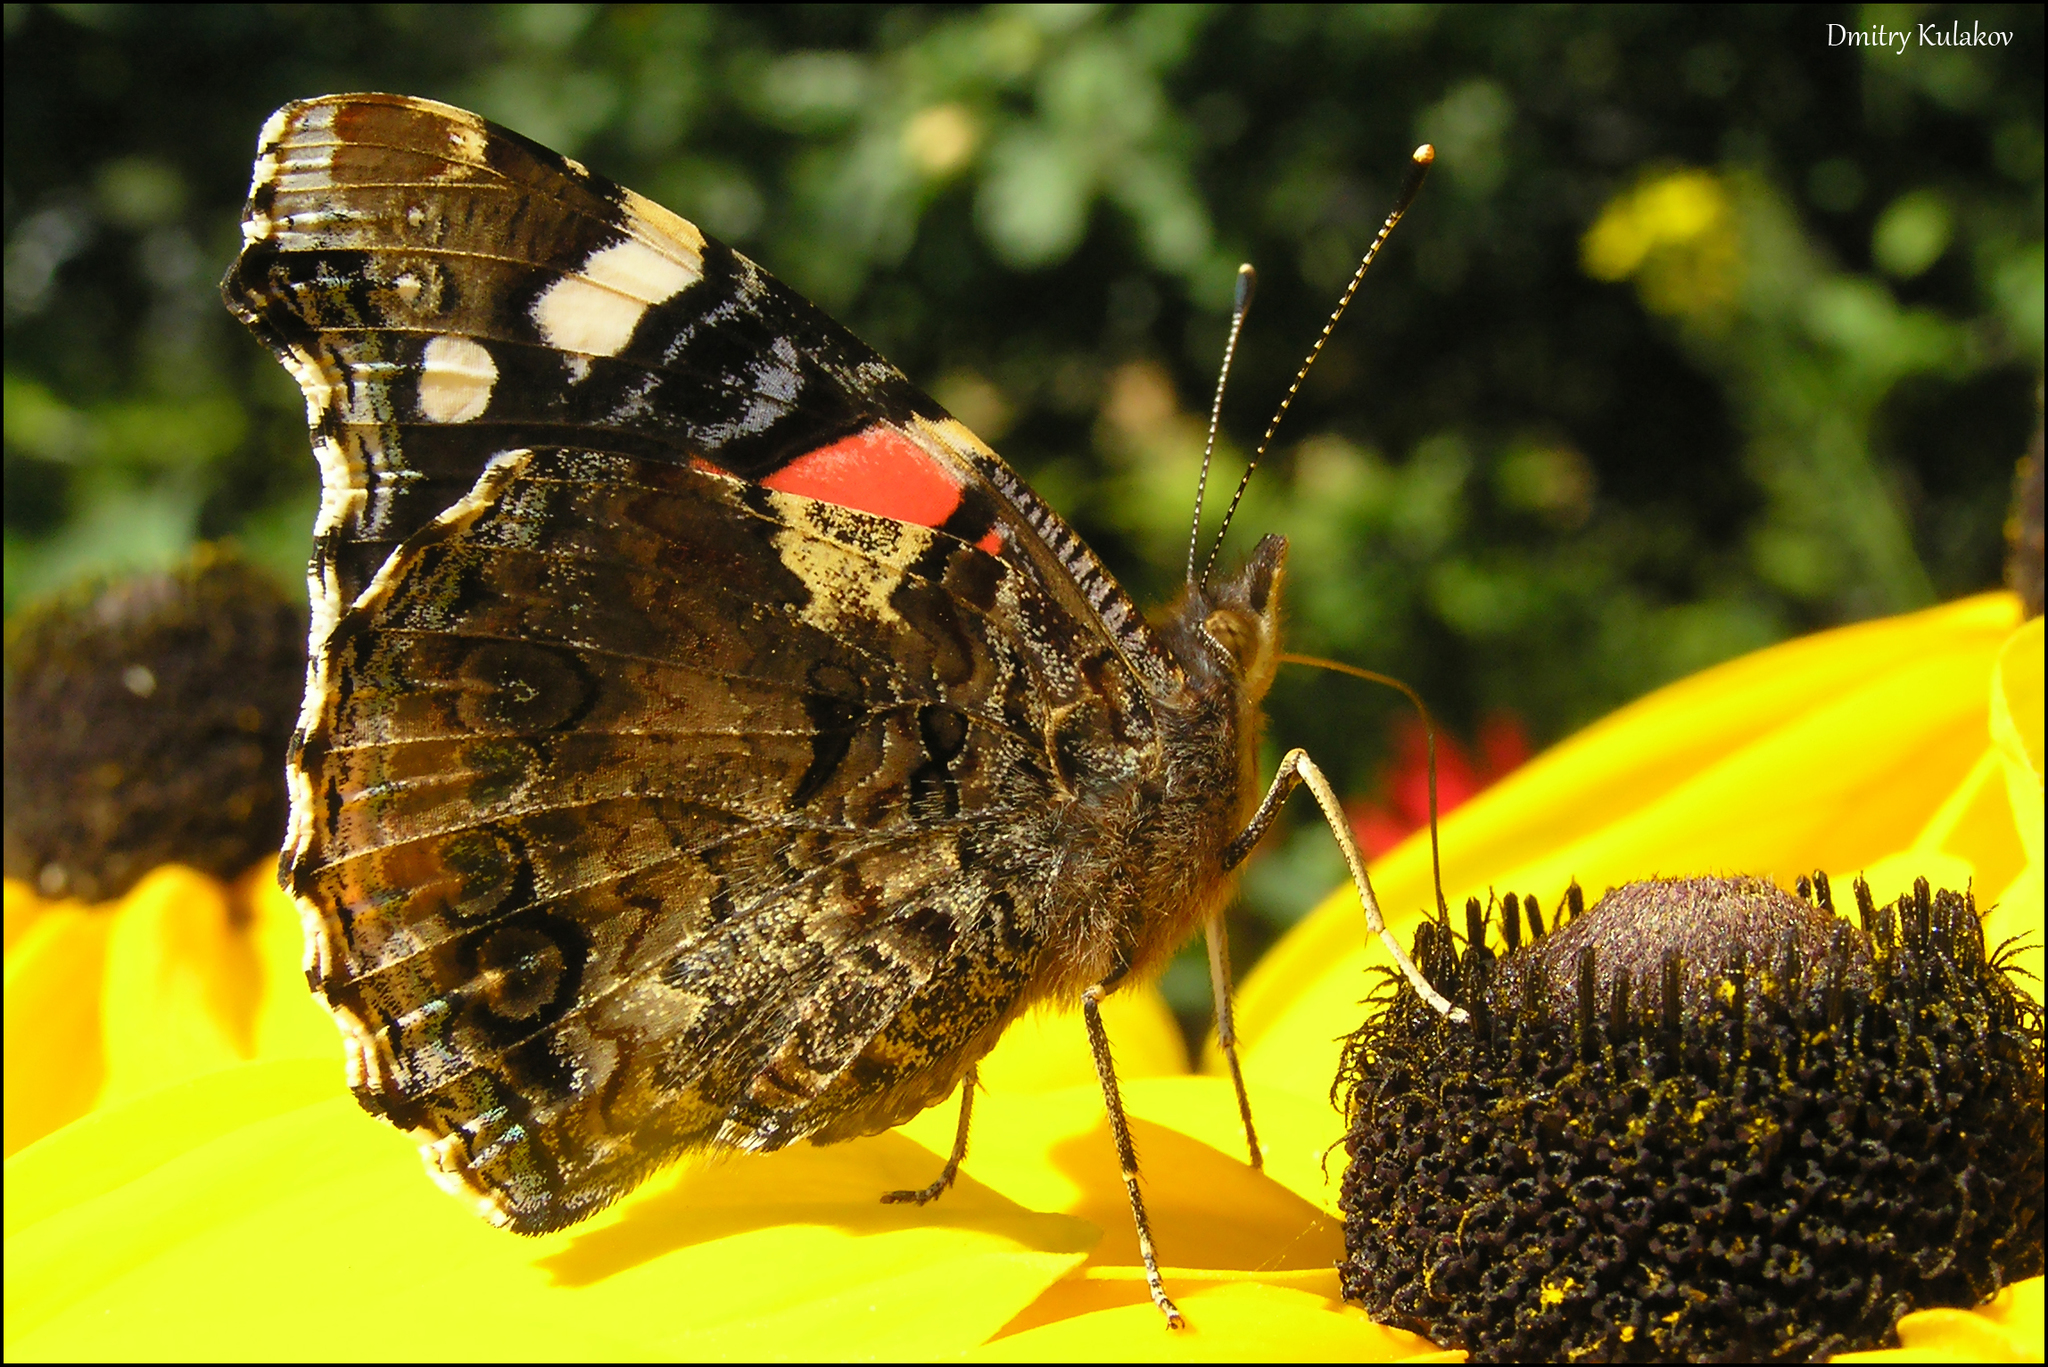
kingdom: Animalia
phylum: Arthropoda
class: Insecta
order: Lepidoptera
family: Nymphalidae
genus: Vanessa
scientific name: Vanessa atalanta
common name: Red admiral
